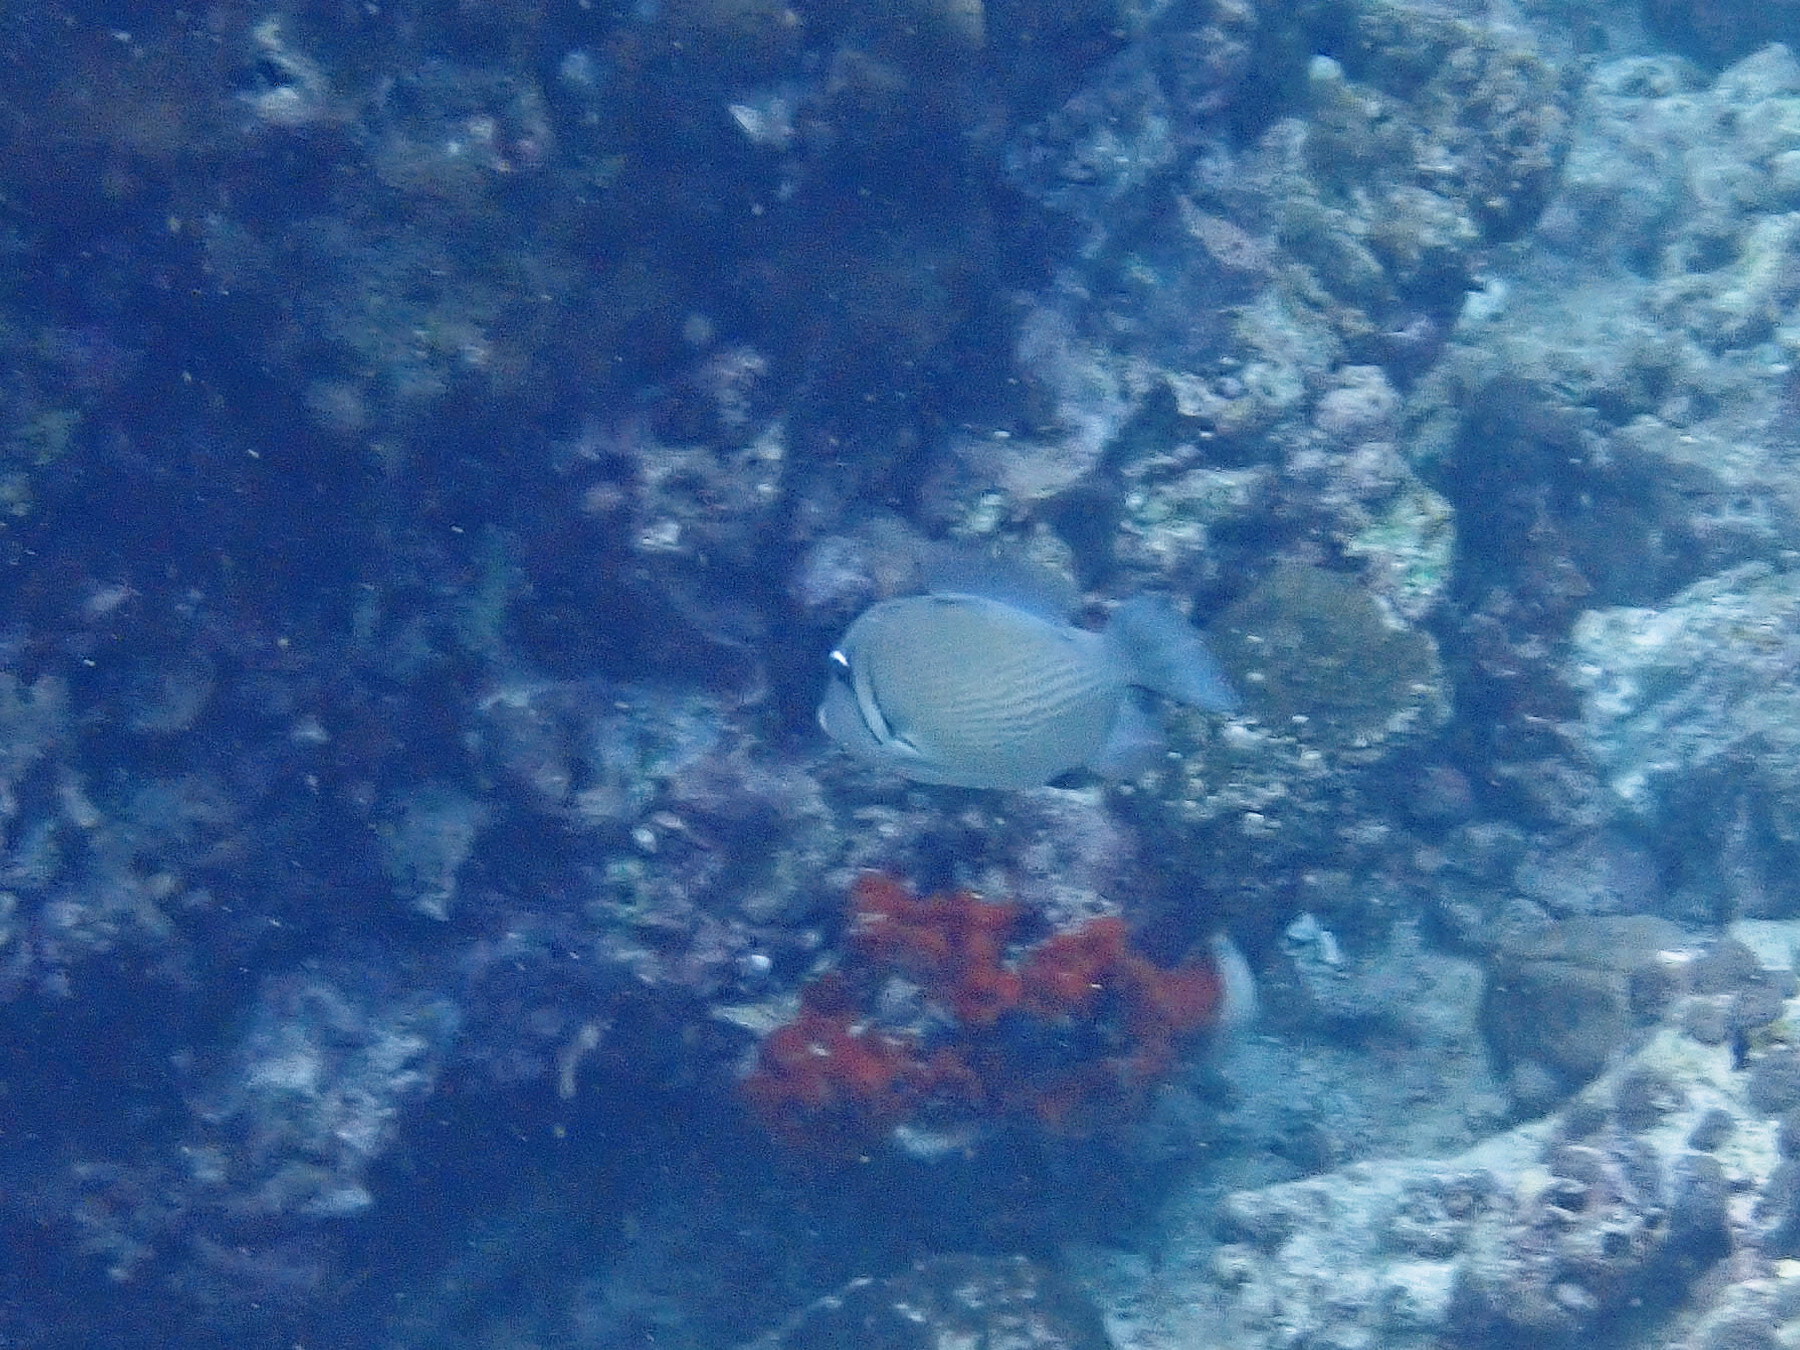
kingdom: Animalia
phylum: Chordata
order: Tetraodontiformes
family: Balistidae
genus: Sufflamen
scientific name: Sufflamen bursa
